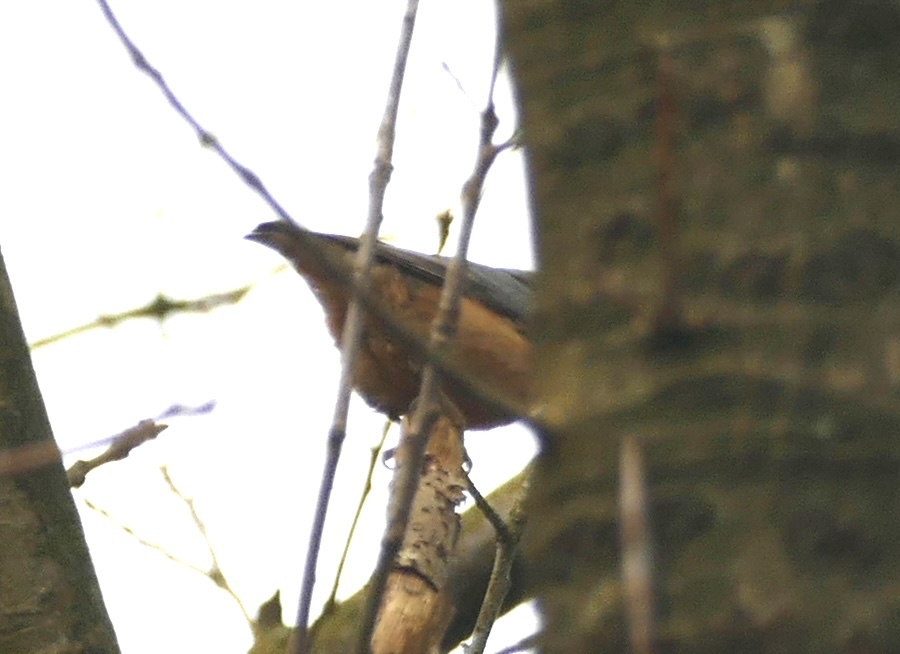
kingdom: Animalia
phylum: Chordata
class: Aves
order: Passeriformes
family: Sittidae
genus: Sitta
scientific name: Sitta europaea
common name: Eurasian nuthatch
